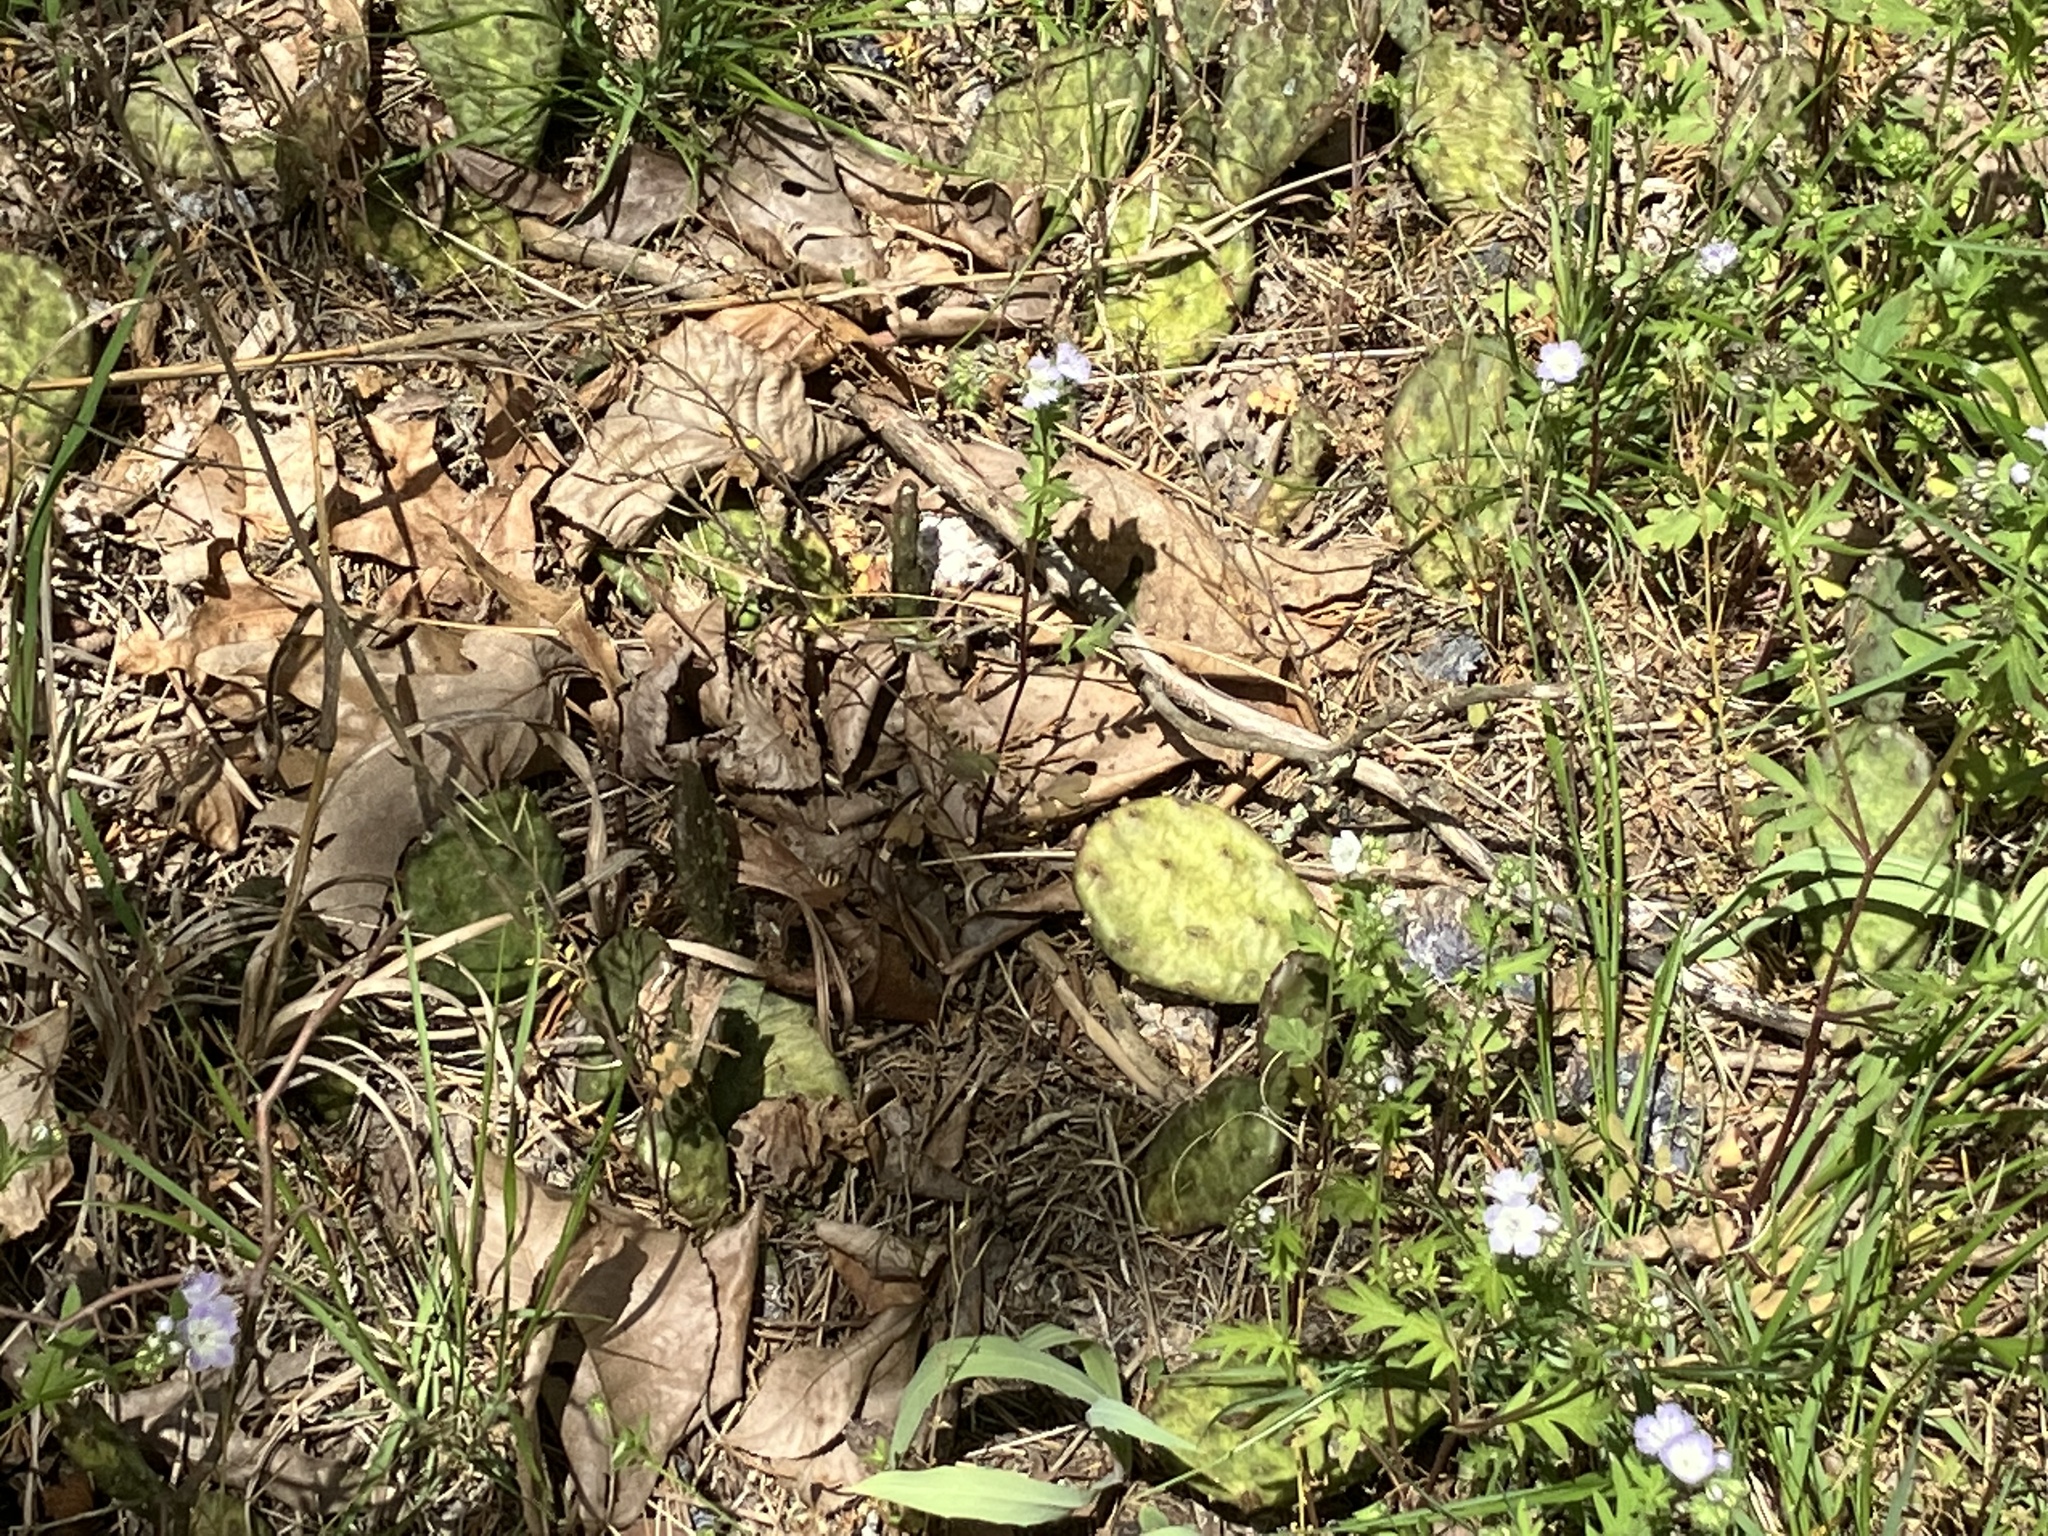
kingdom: Plantae
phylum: Tracheophyta
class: Magnoliopsida
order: Caryophyllales
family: Cactaceae
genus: Opuntia
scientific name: Opuntia humifusa
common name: Eastern prickly-pear
